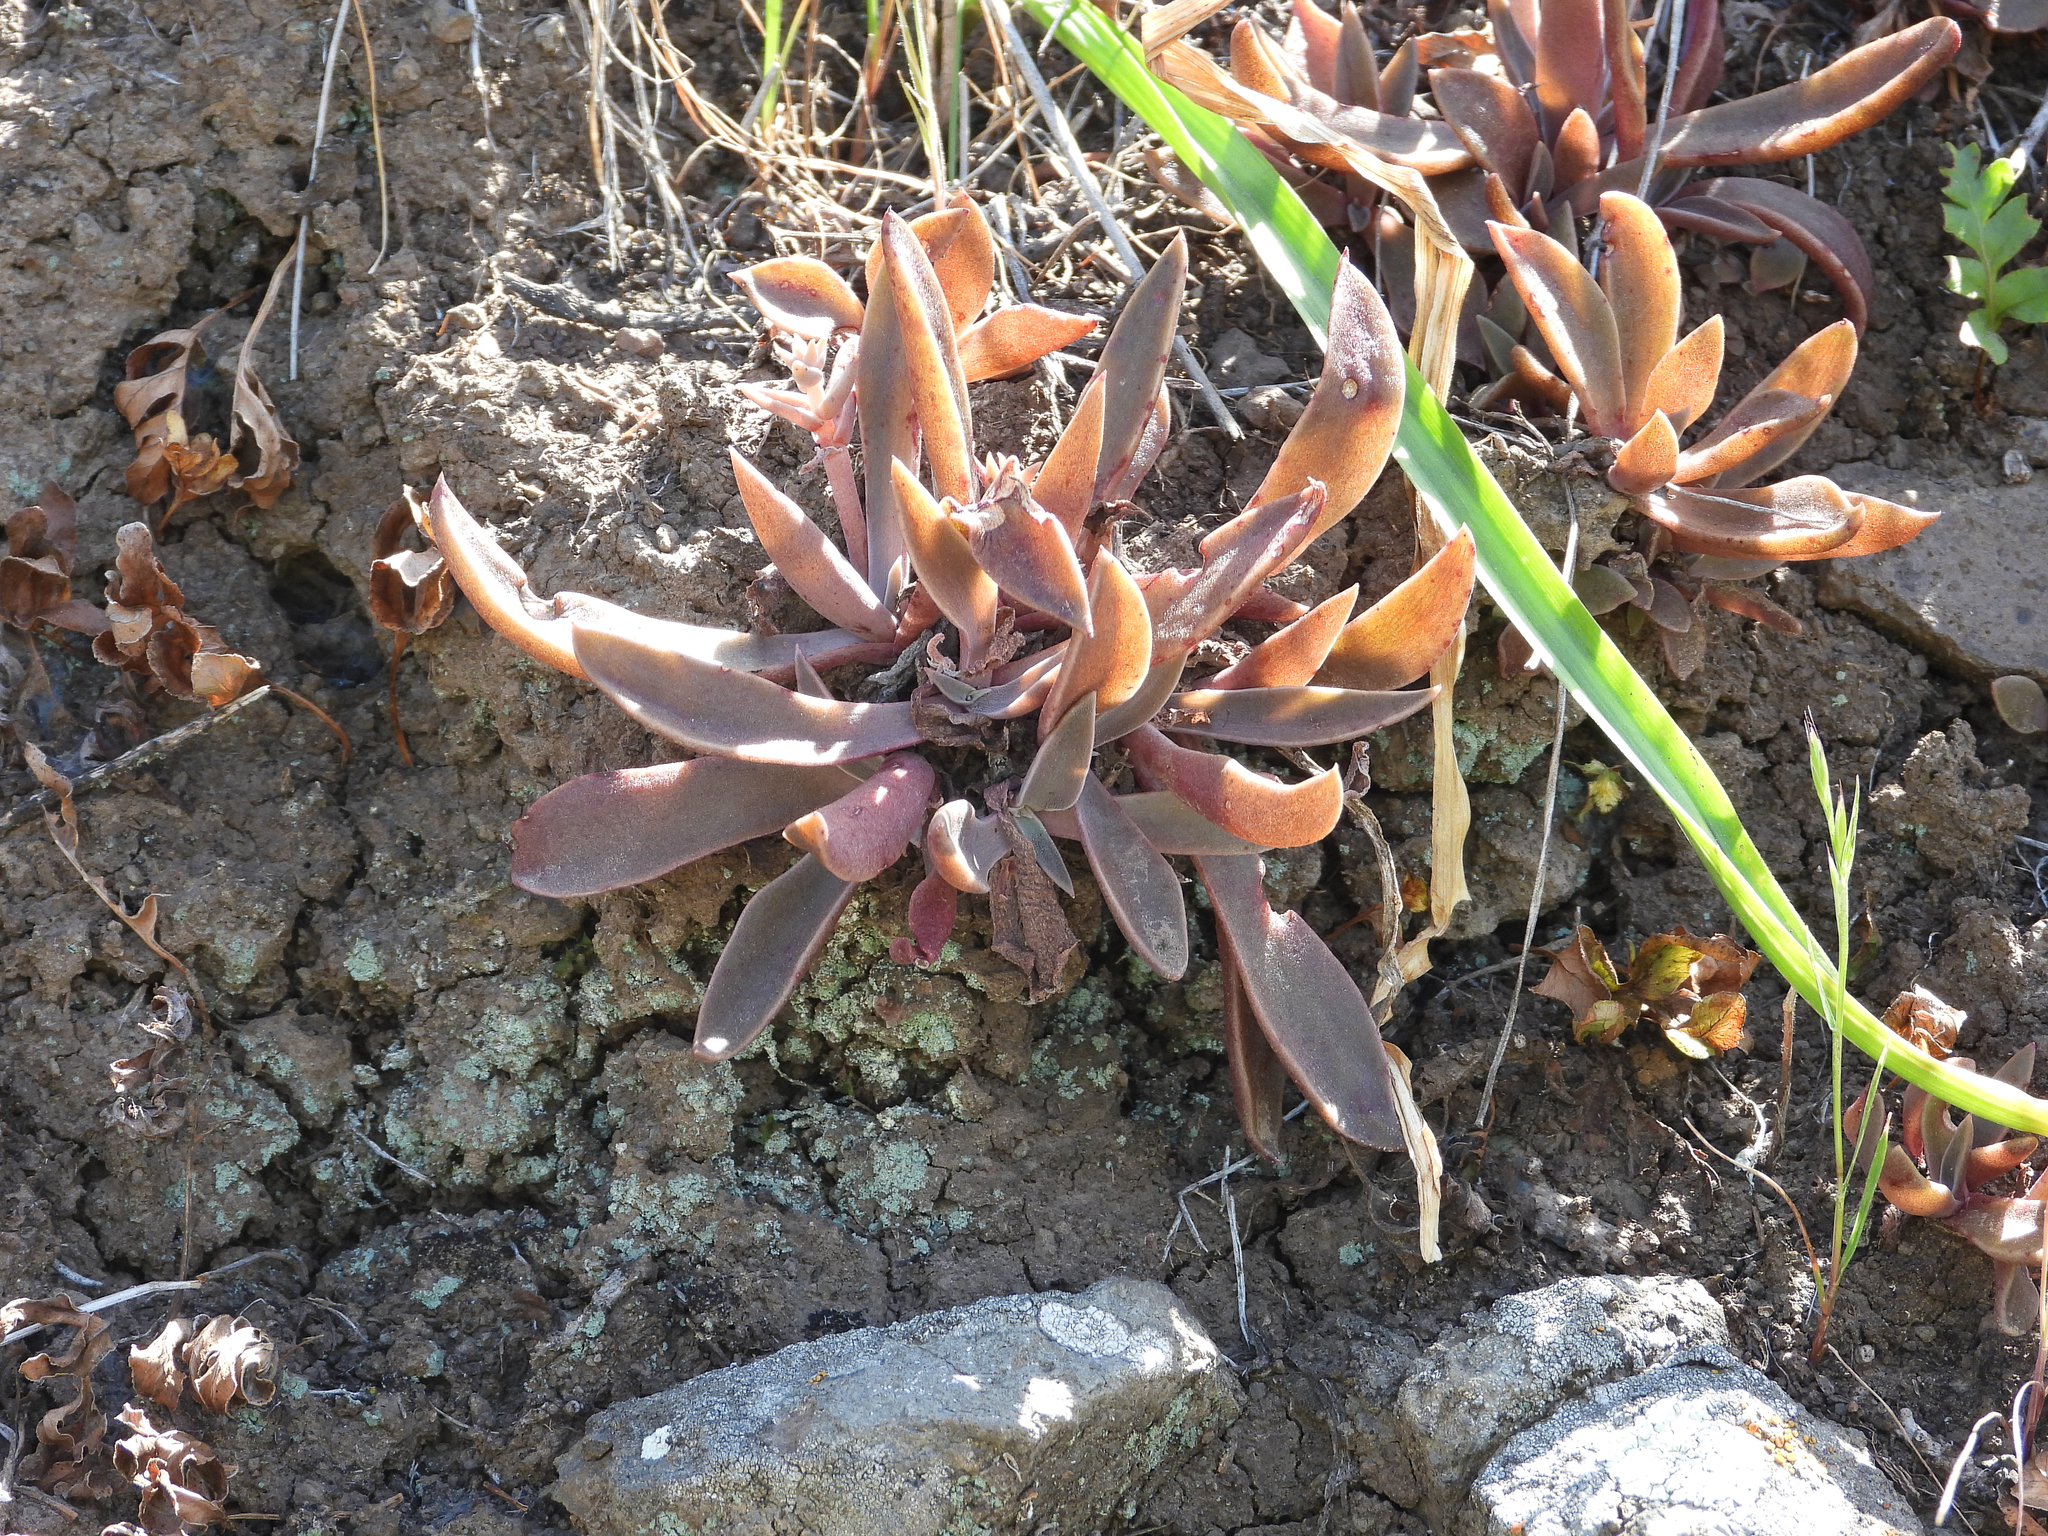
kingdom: Plantae
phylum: Tracheophyta
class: Magnoliopsida
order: Saxifragales
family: Crassulaceae
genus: Dudleya
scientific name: Dudleya parva
